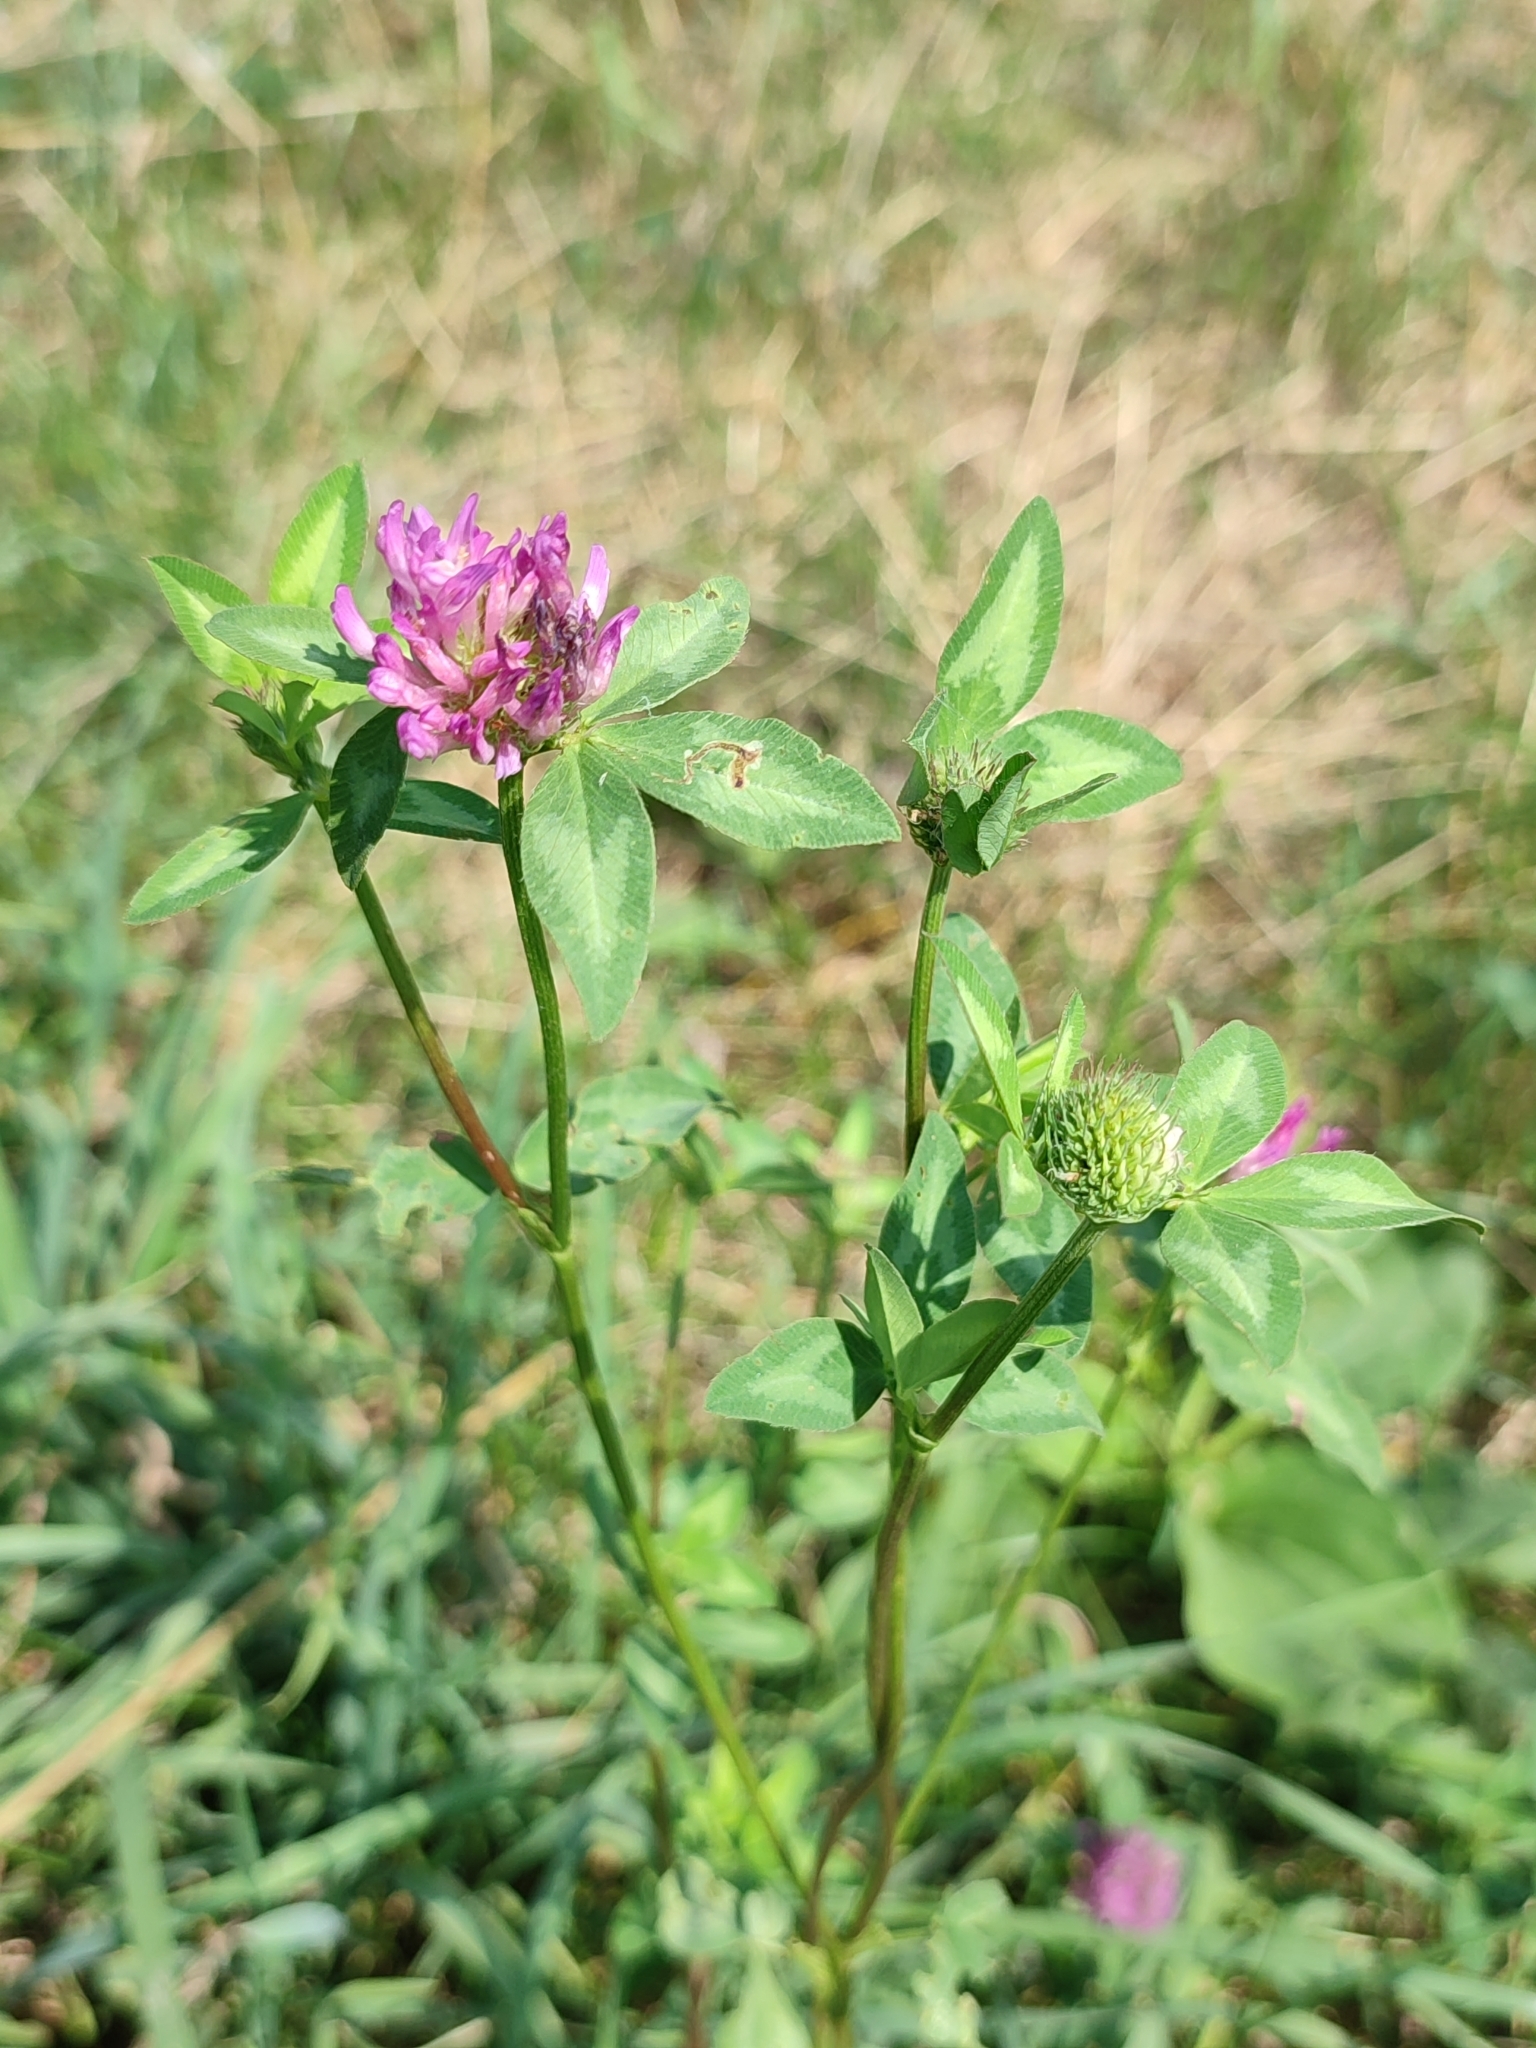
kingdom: Plantae
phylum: Tracheophyta
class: Magnoliopsida
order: Fabales
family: Fabaceae
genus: Trifolium
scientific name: Trifolium pratense
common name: Red clover
